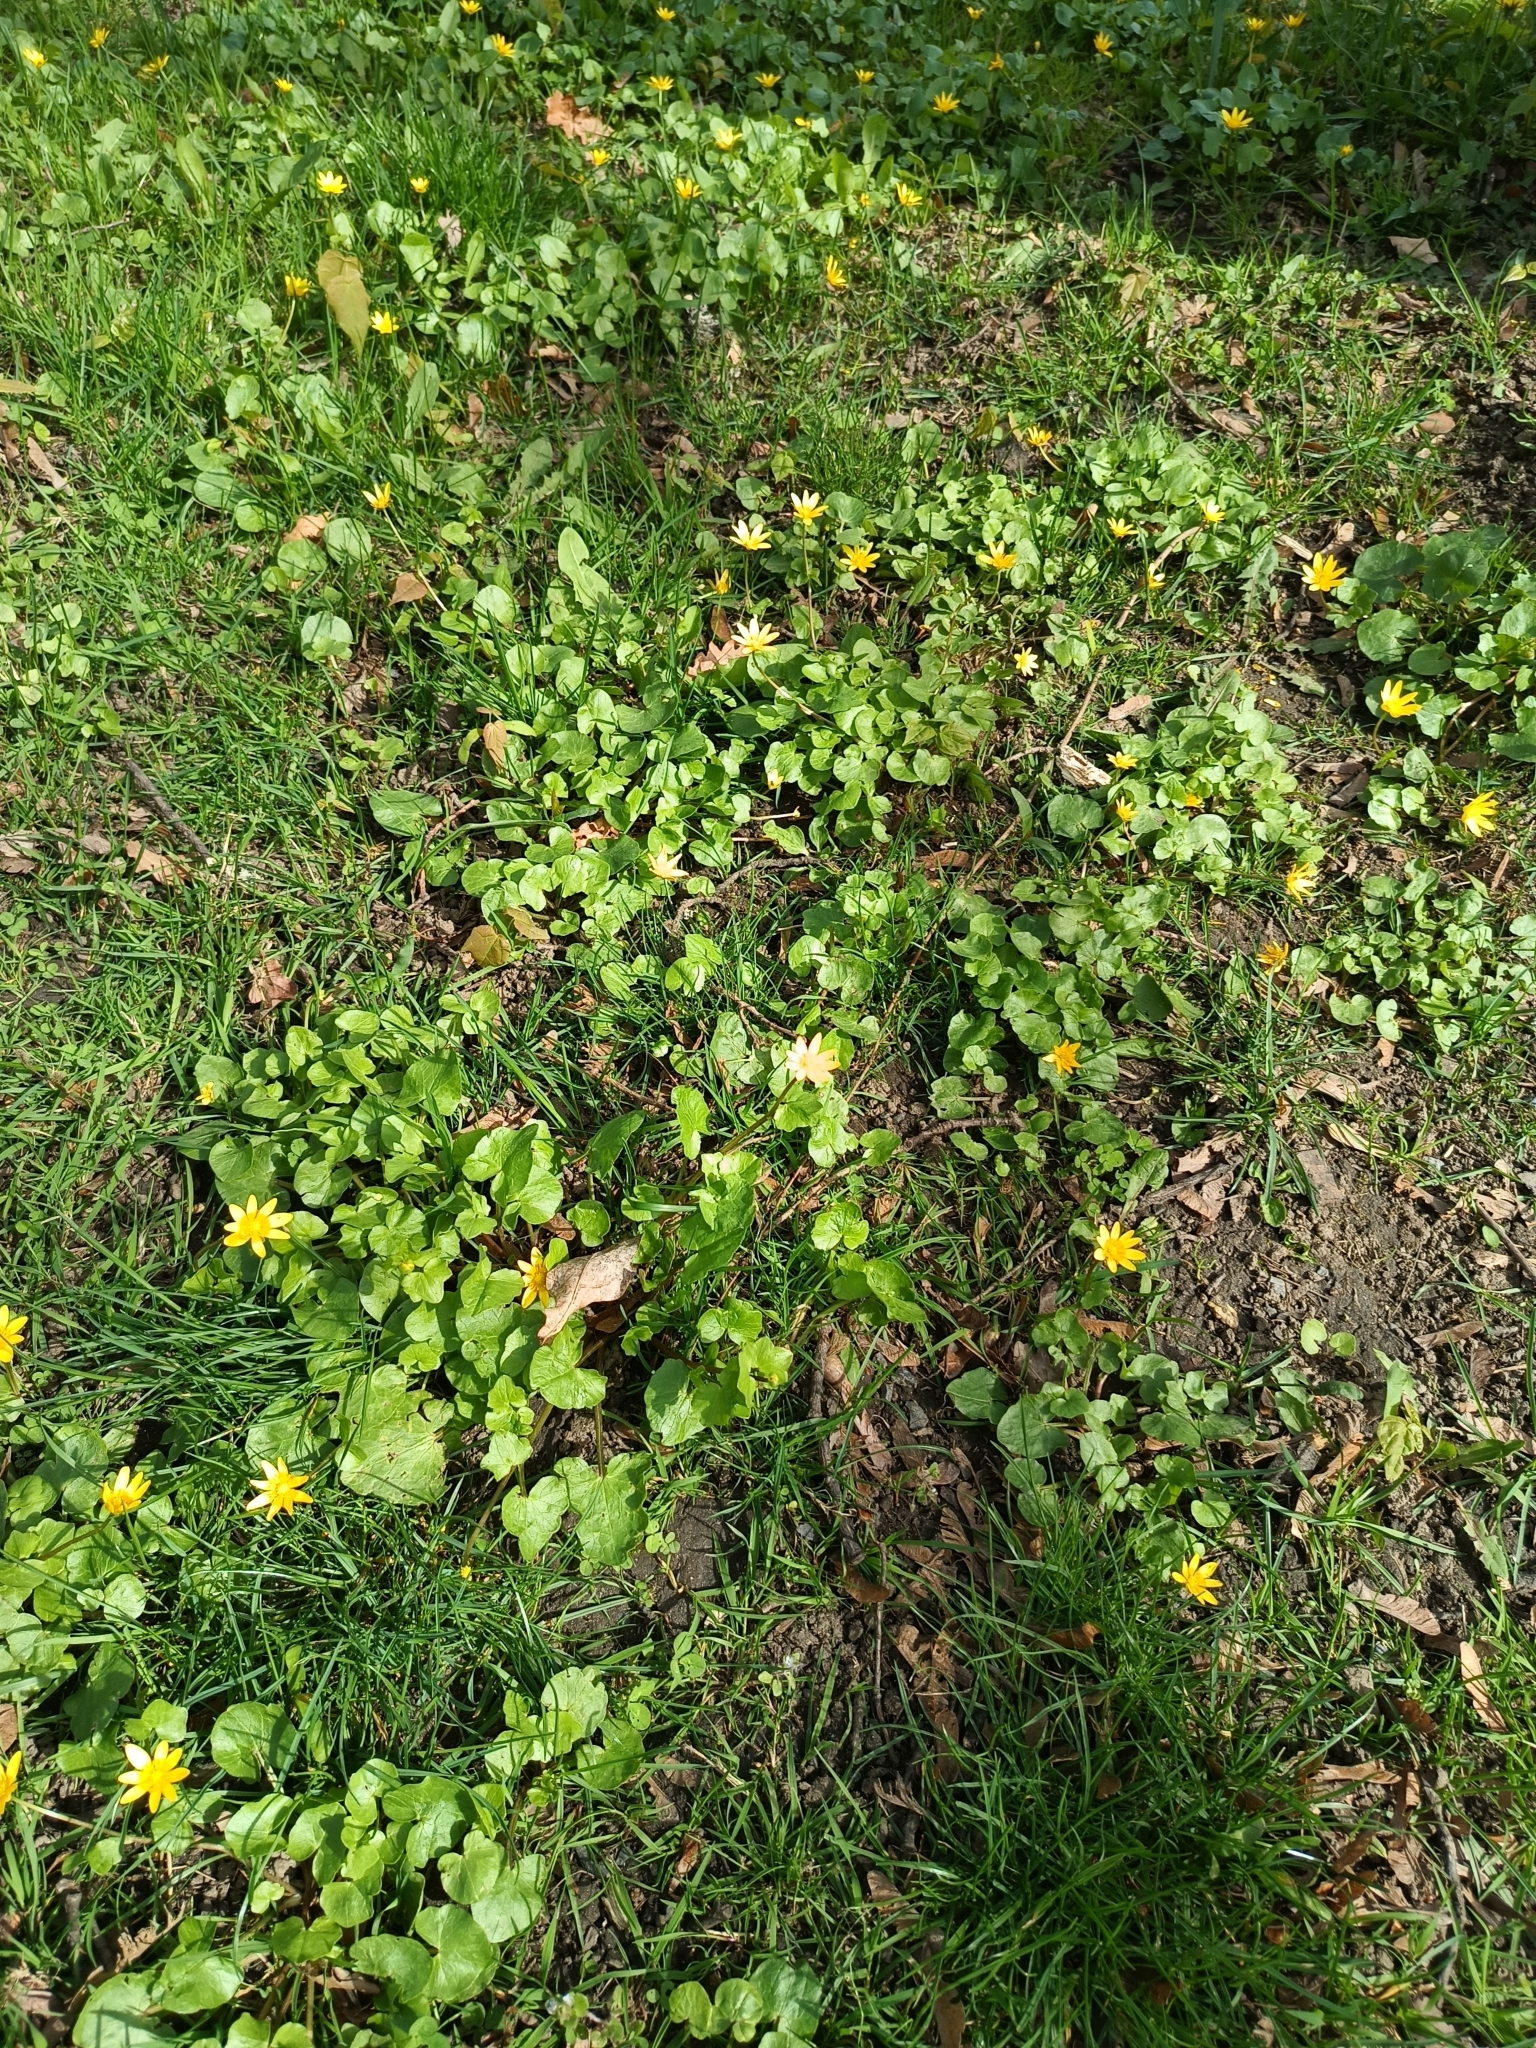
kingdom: Plantae
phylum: Tracheophyta
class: Magnoliopsida
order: Ranunculales
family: Ranunculaceae
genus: Ficaria
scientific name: Ficaria verna
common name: Lesser celandine
